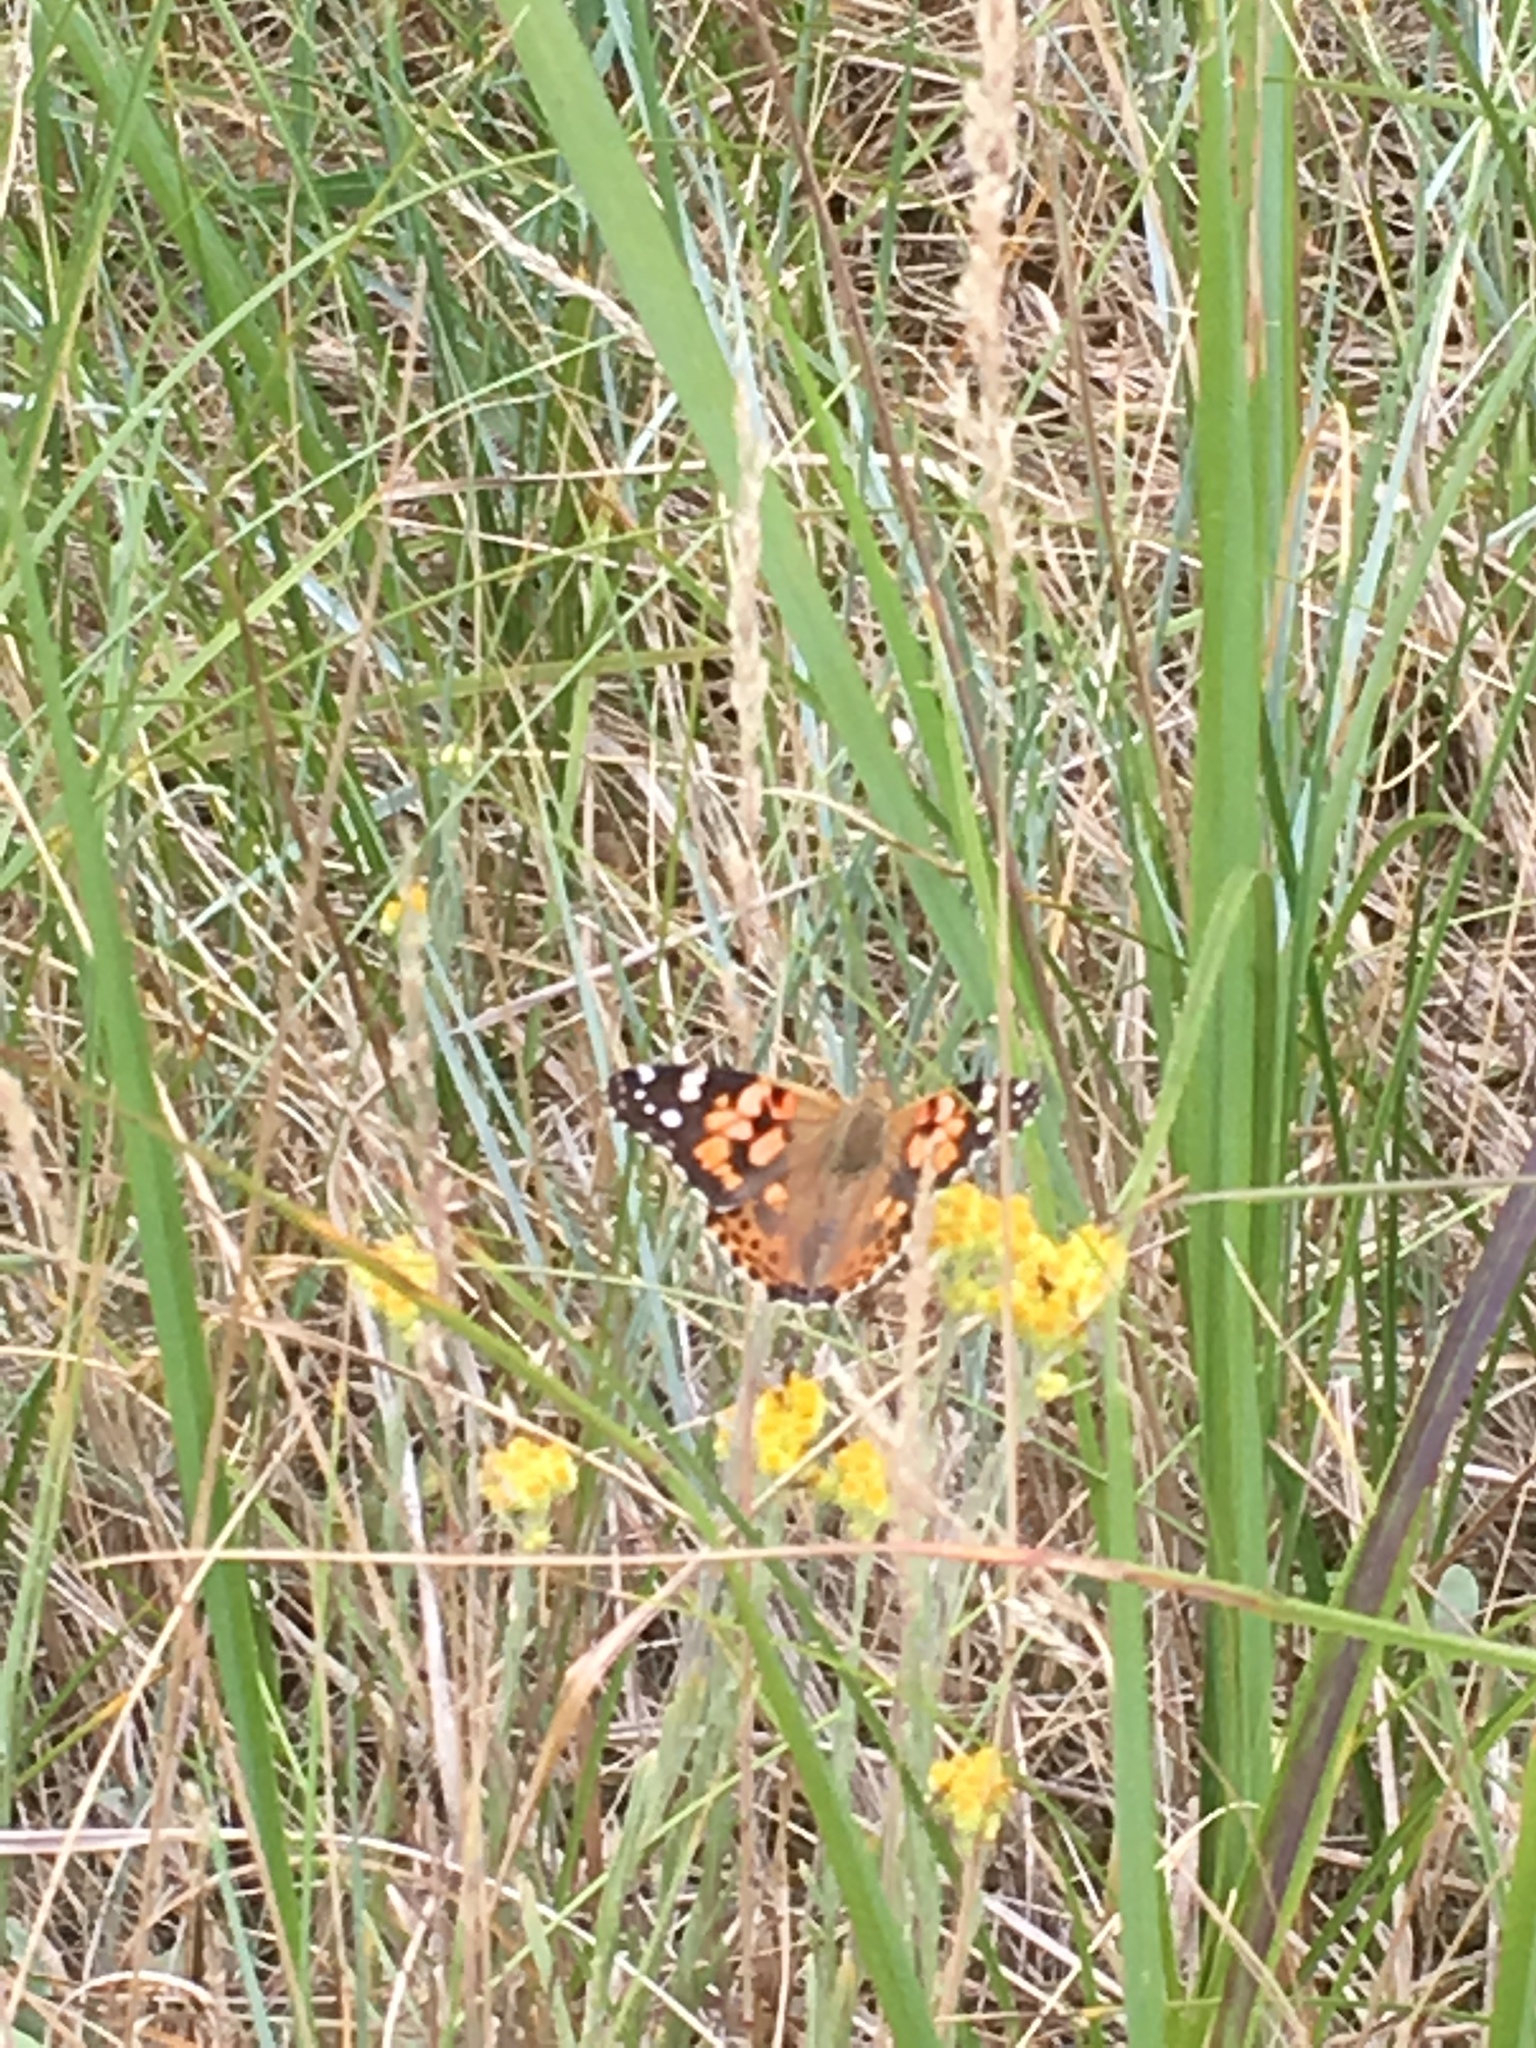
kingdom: Animalia
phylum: Arthropoda
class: Insecta
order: Lepidoptera
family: Nymphalidae
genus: Vanessa
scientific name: Vanessa cardui
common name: Painted lady
